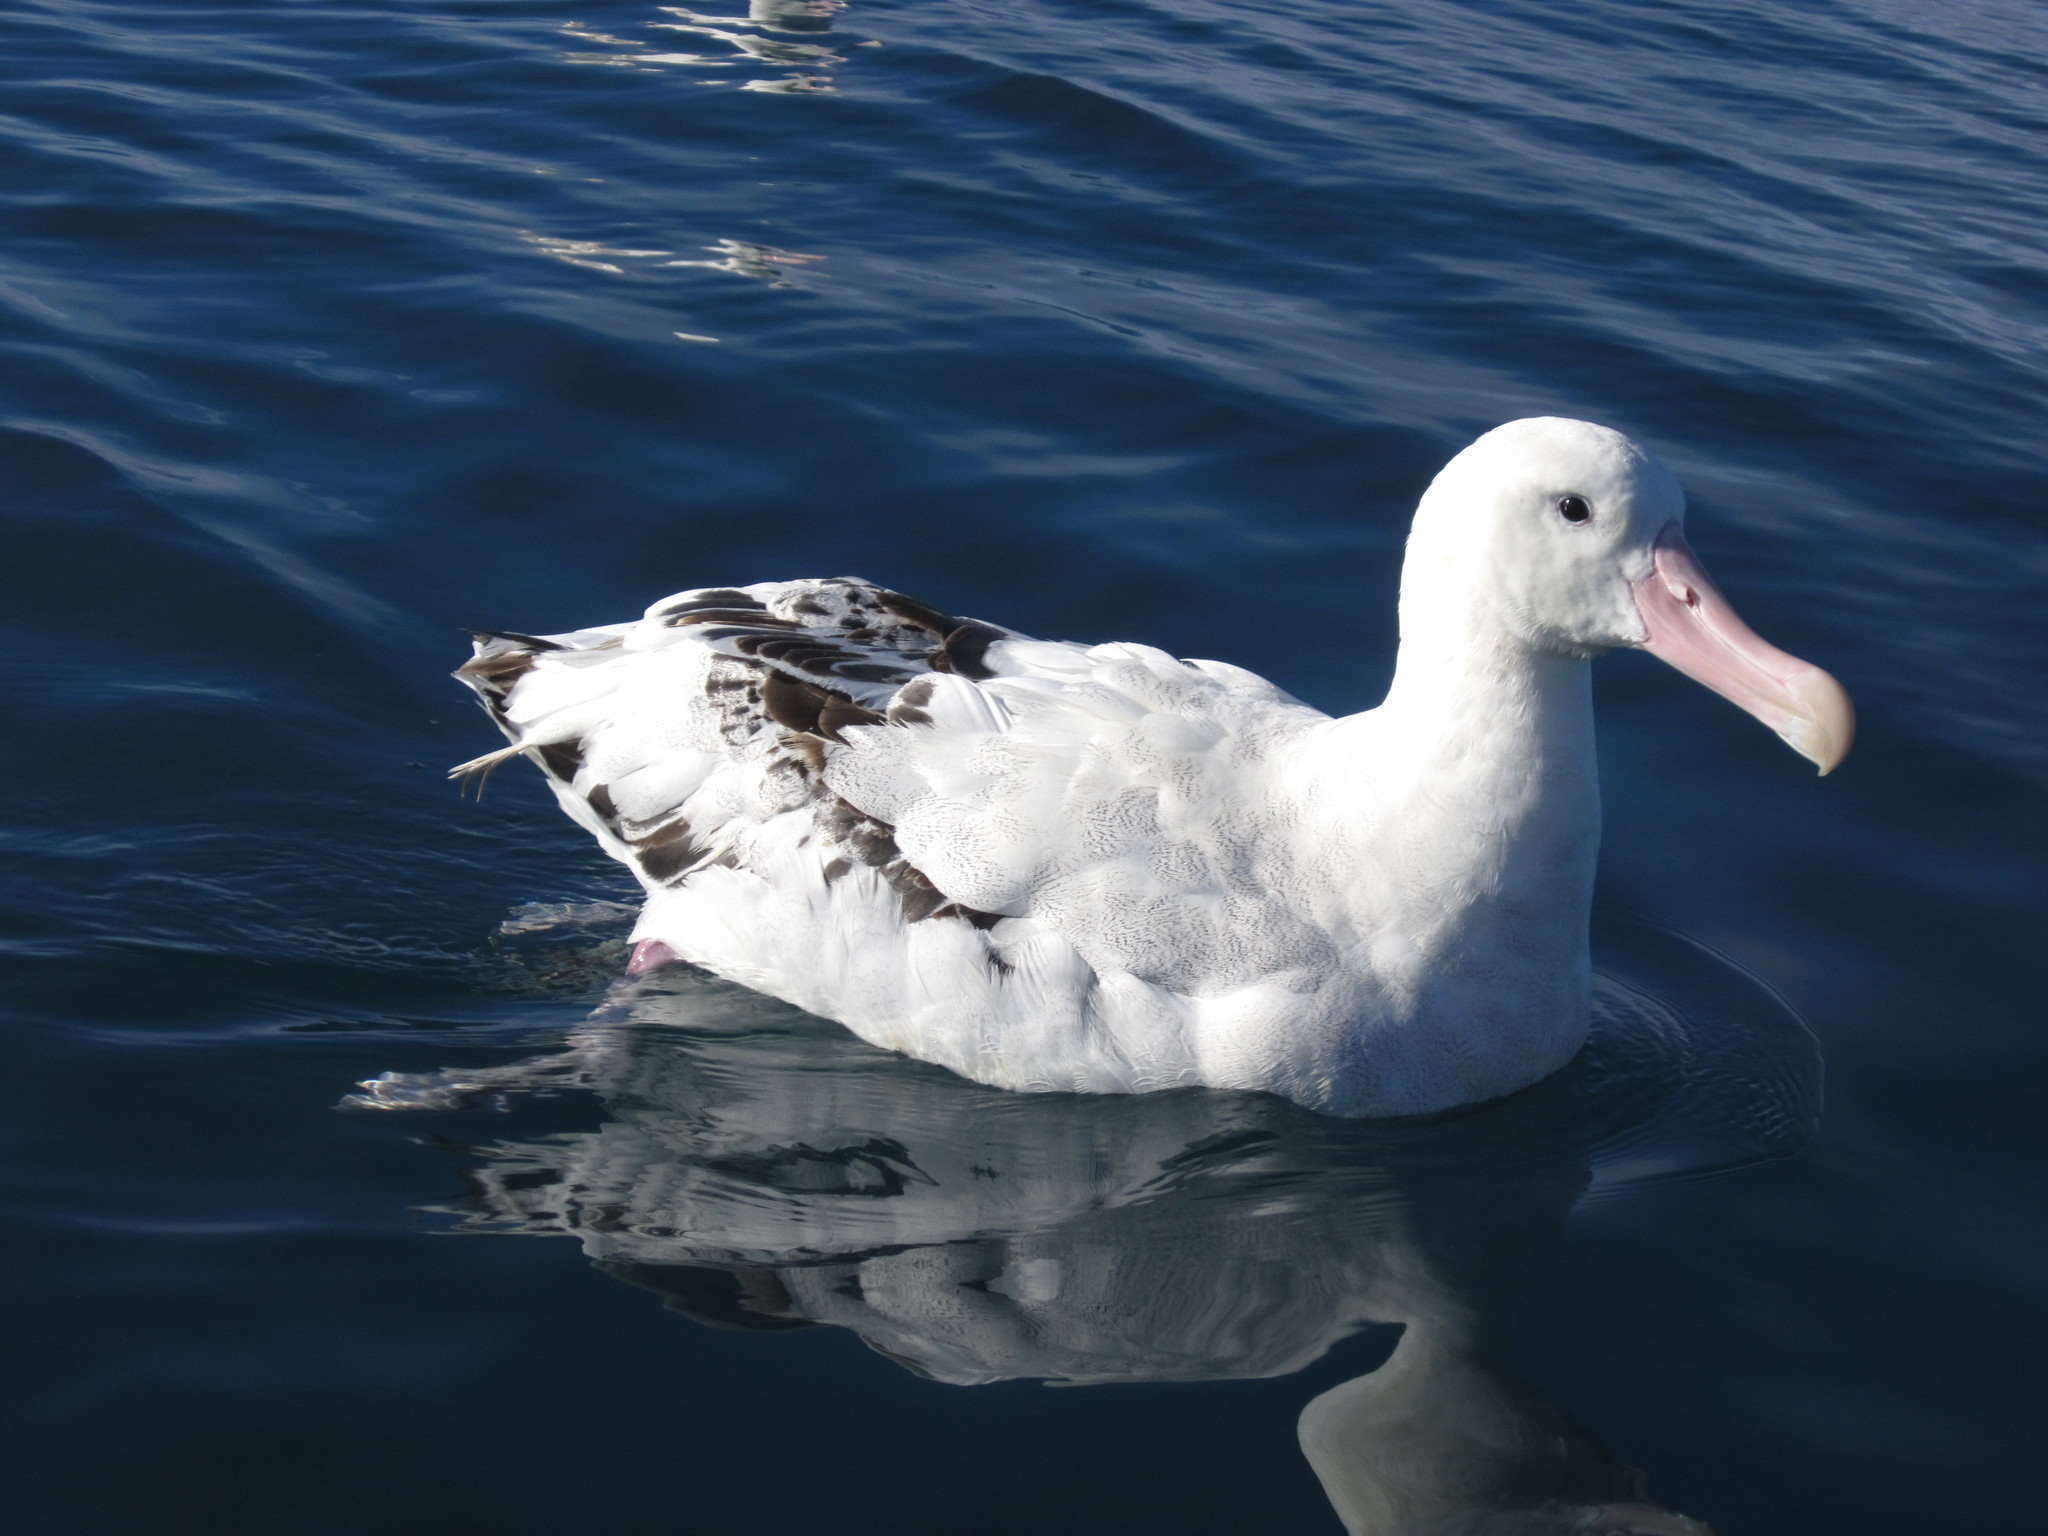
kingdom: Animalia
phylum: Chordata
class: Aves
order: Procellariiformes
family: Diomedeidae
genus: Diomedea
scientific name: Diomedea antipodensis
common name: Antipodean albatross
